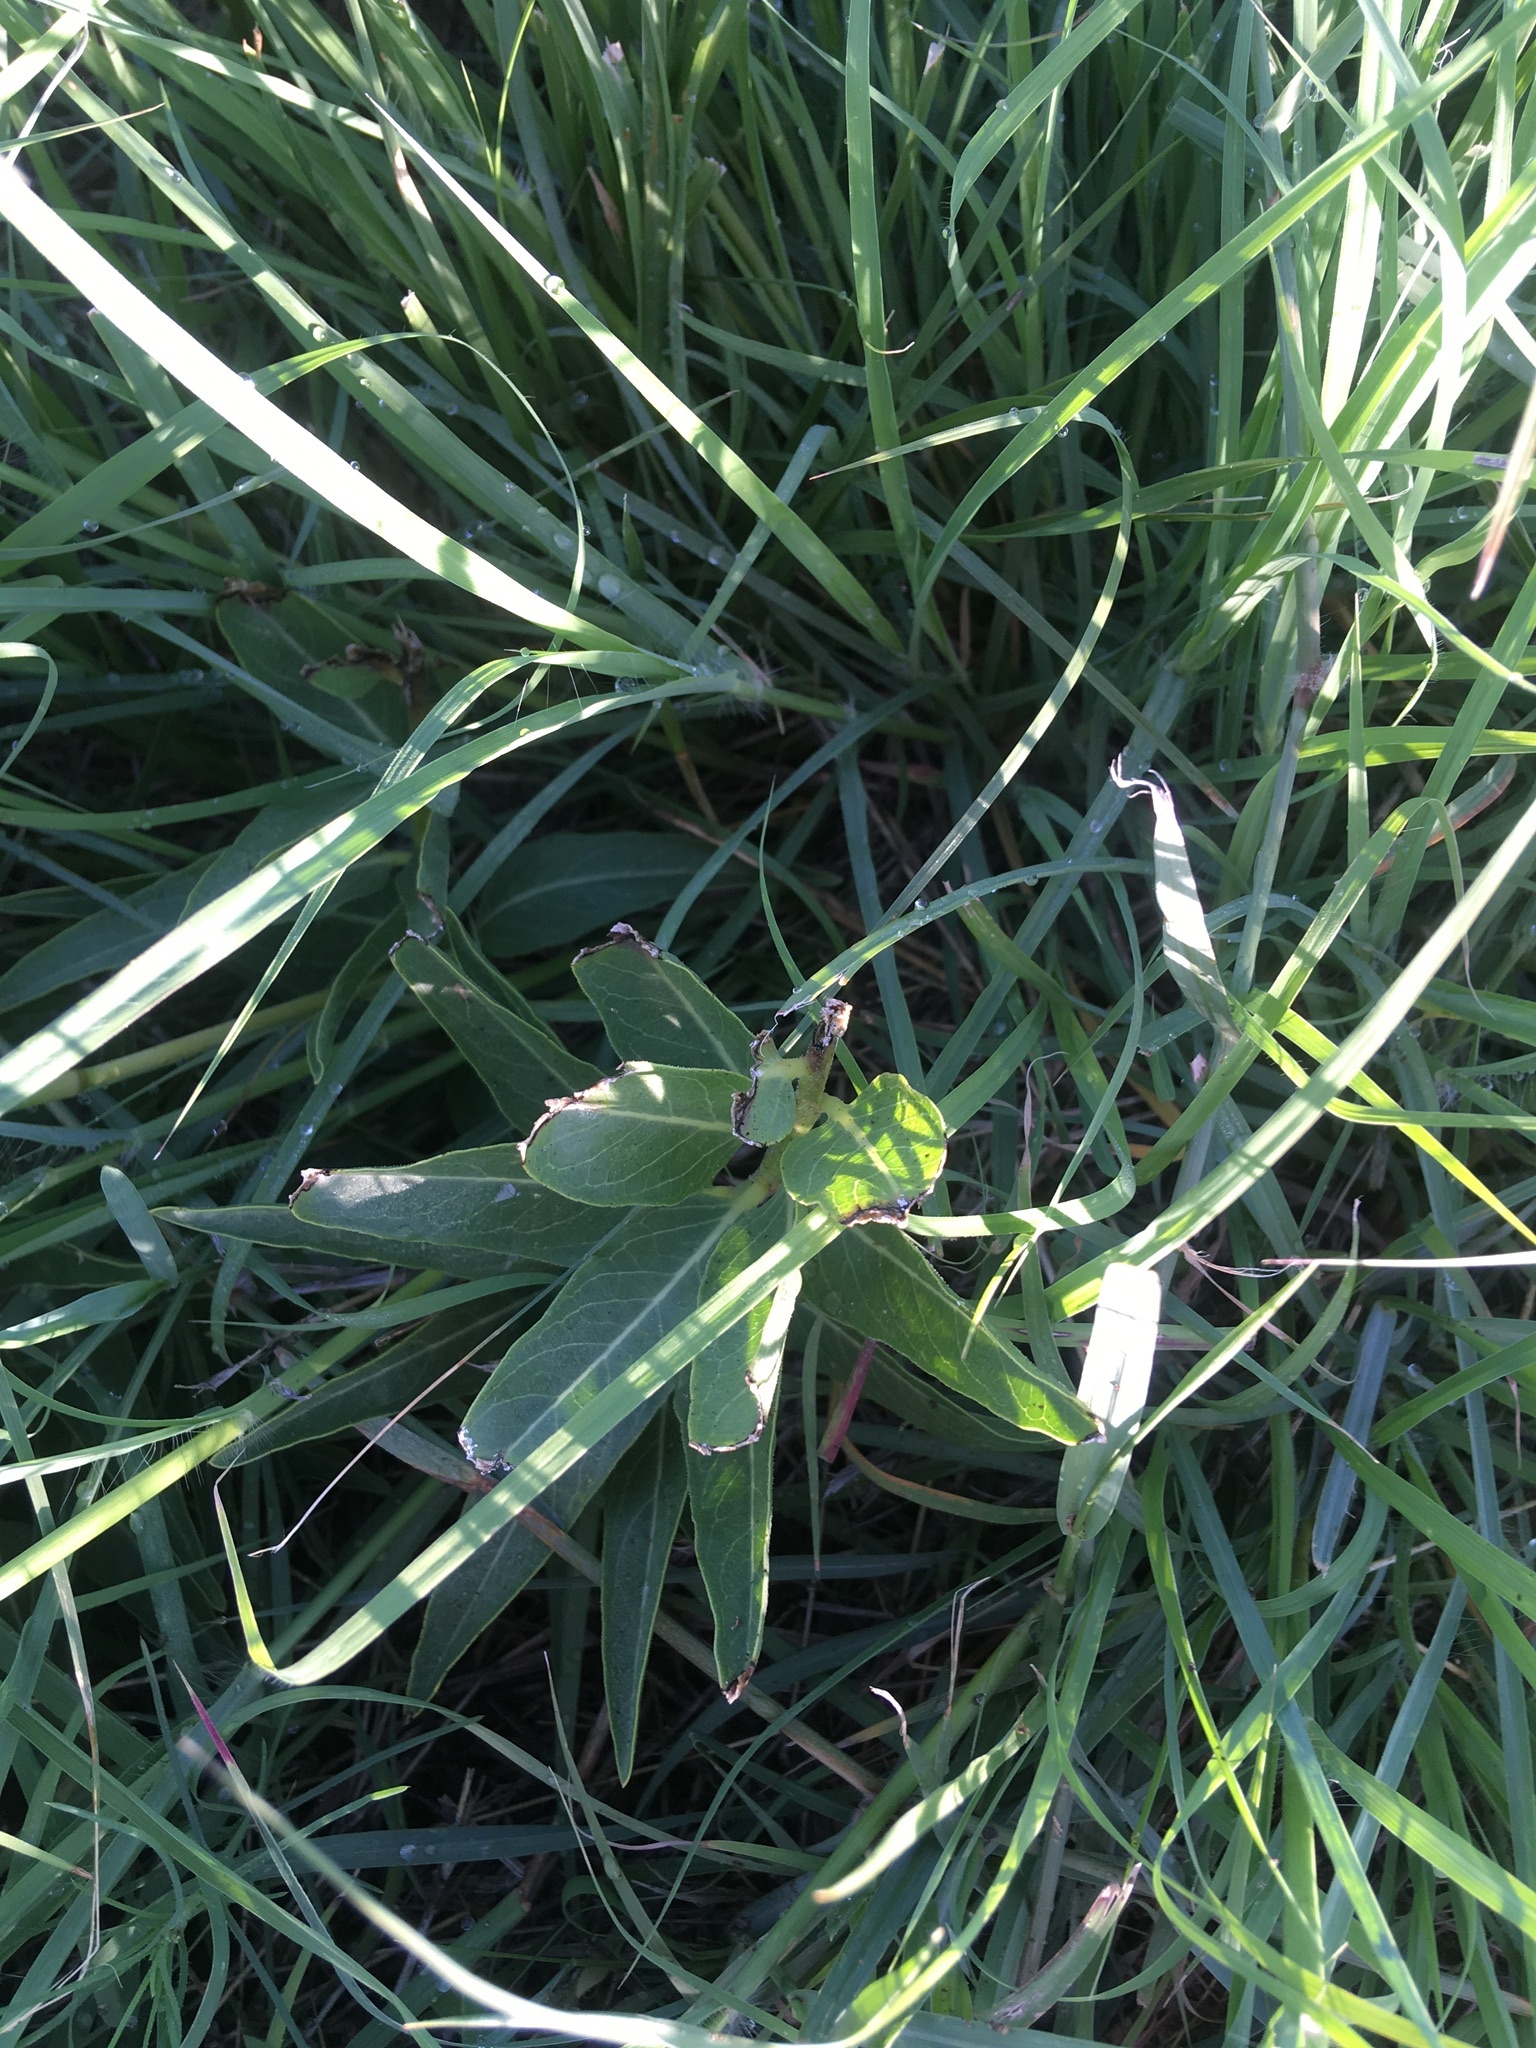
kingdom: Plantae
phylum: Tracheophyta
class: Magnoliopsida
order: Gentianales
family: Apocynaceae
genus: Asclepias
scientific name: Asclepias asperula
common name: Antelope horns
